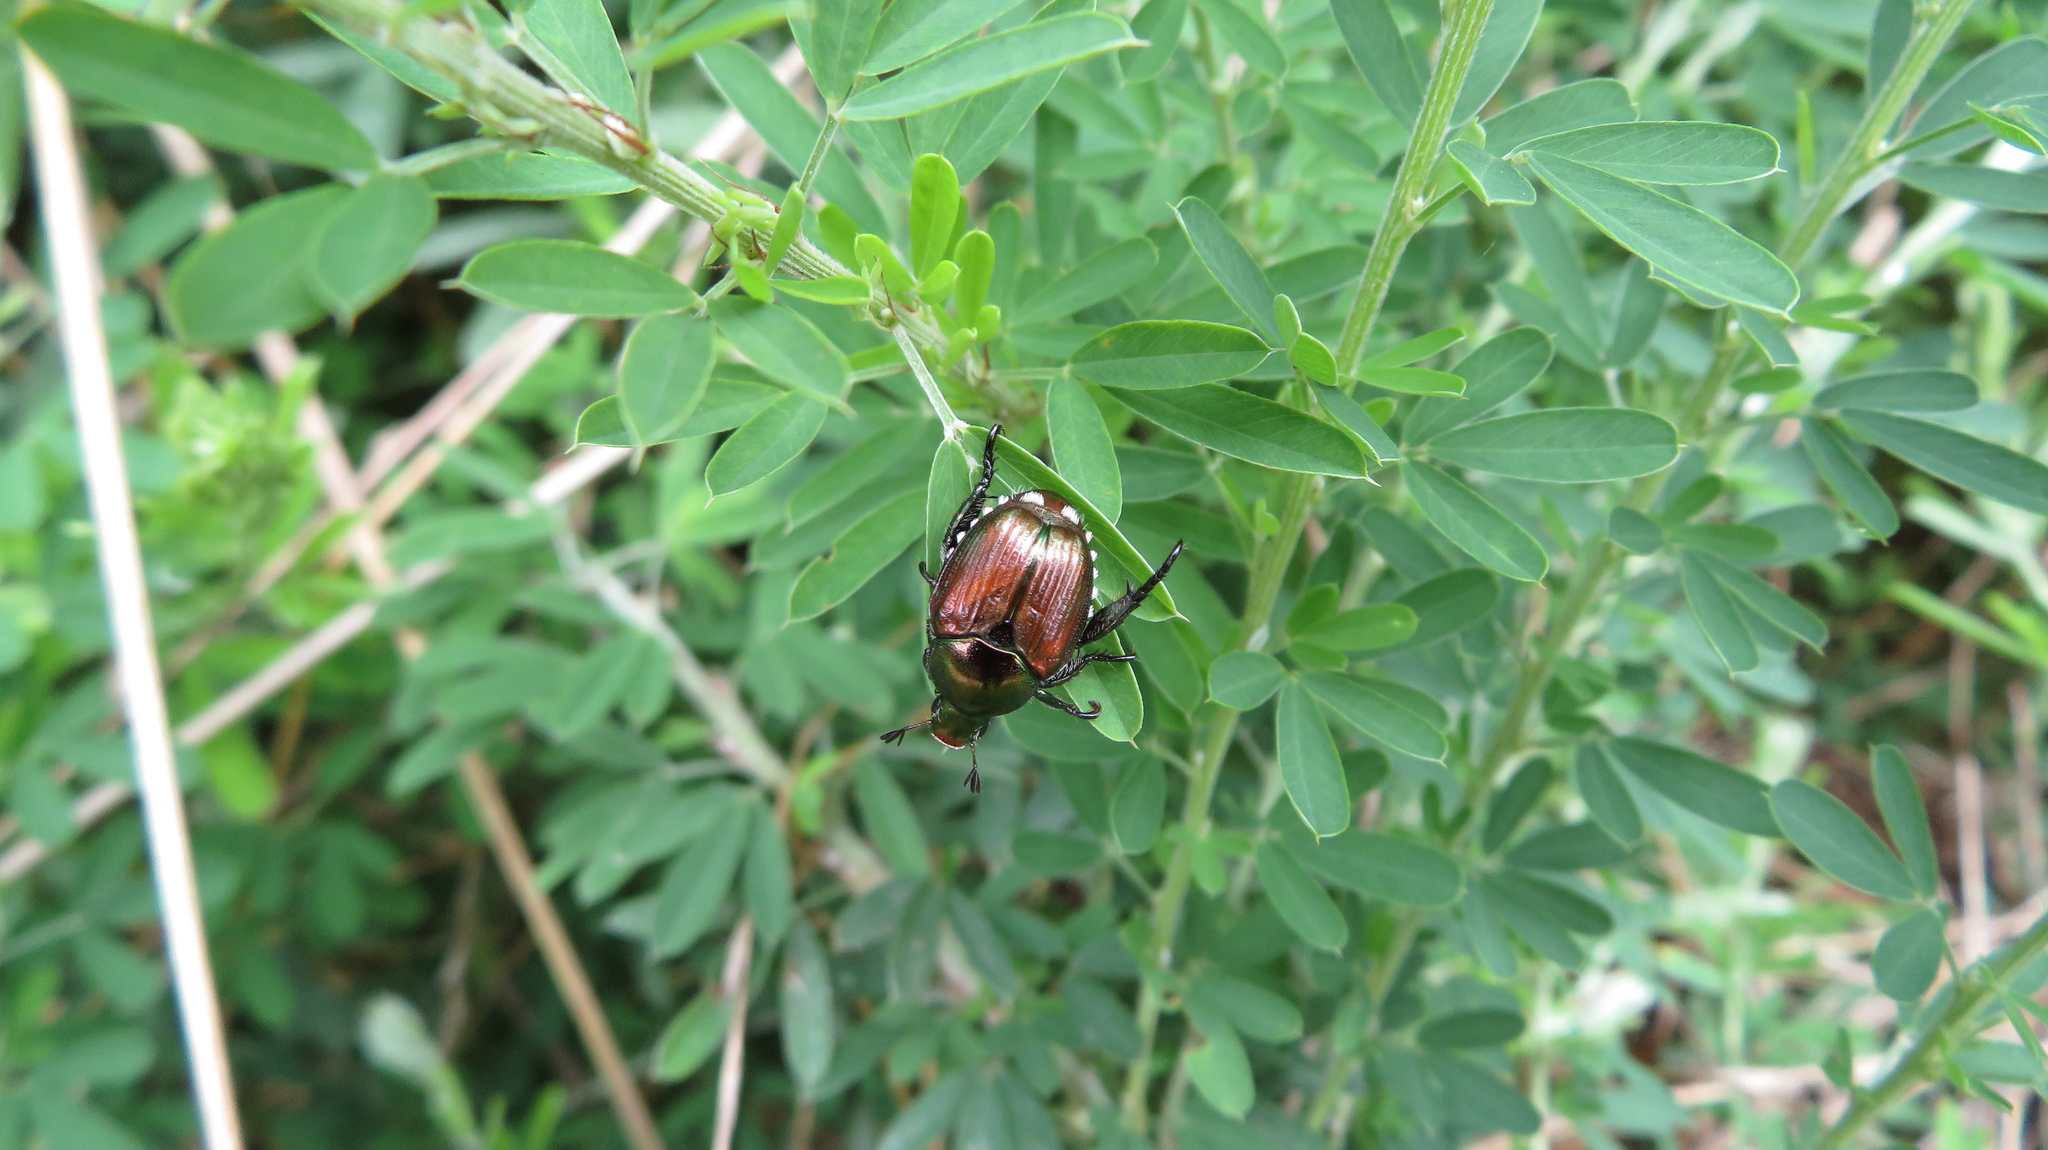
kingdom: Animalia
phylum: Arthropoda
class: Insecta
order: Coleoptera
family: Scarabaeidae
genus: Popillia
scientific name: Popillia japonica
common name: Japanese beetle
